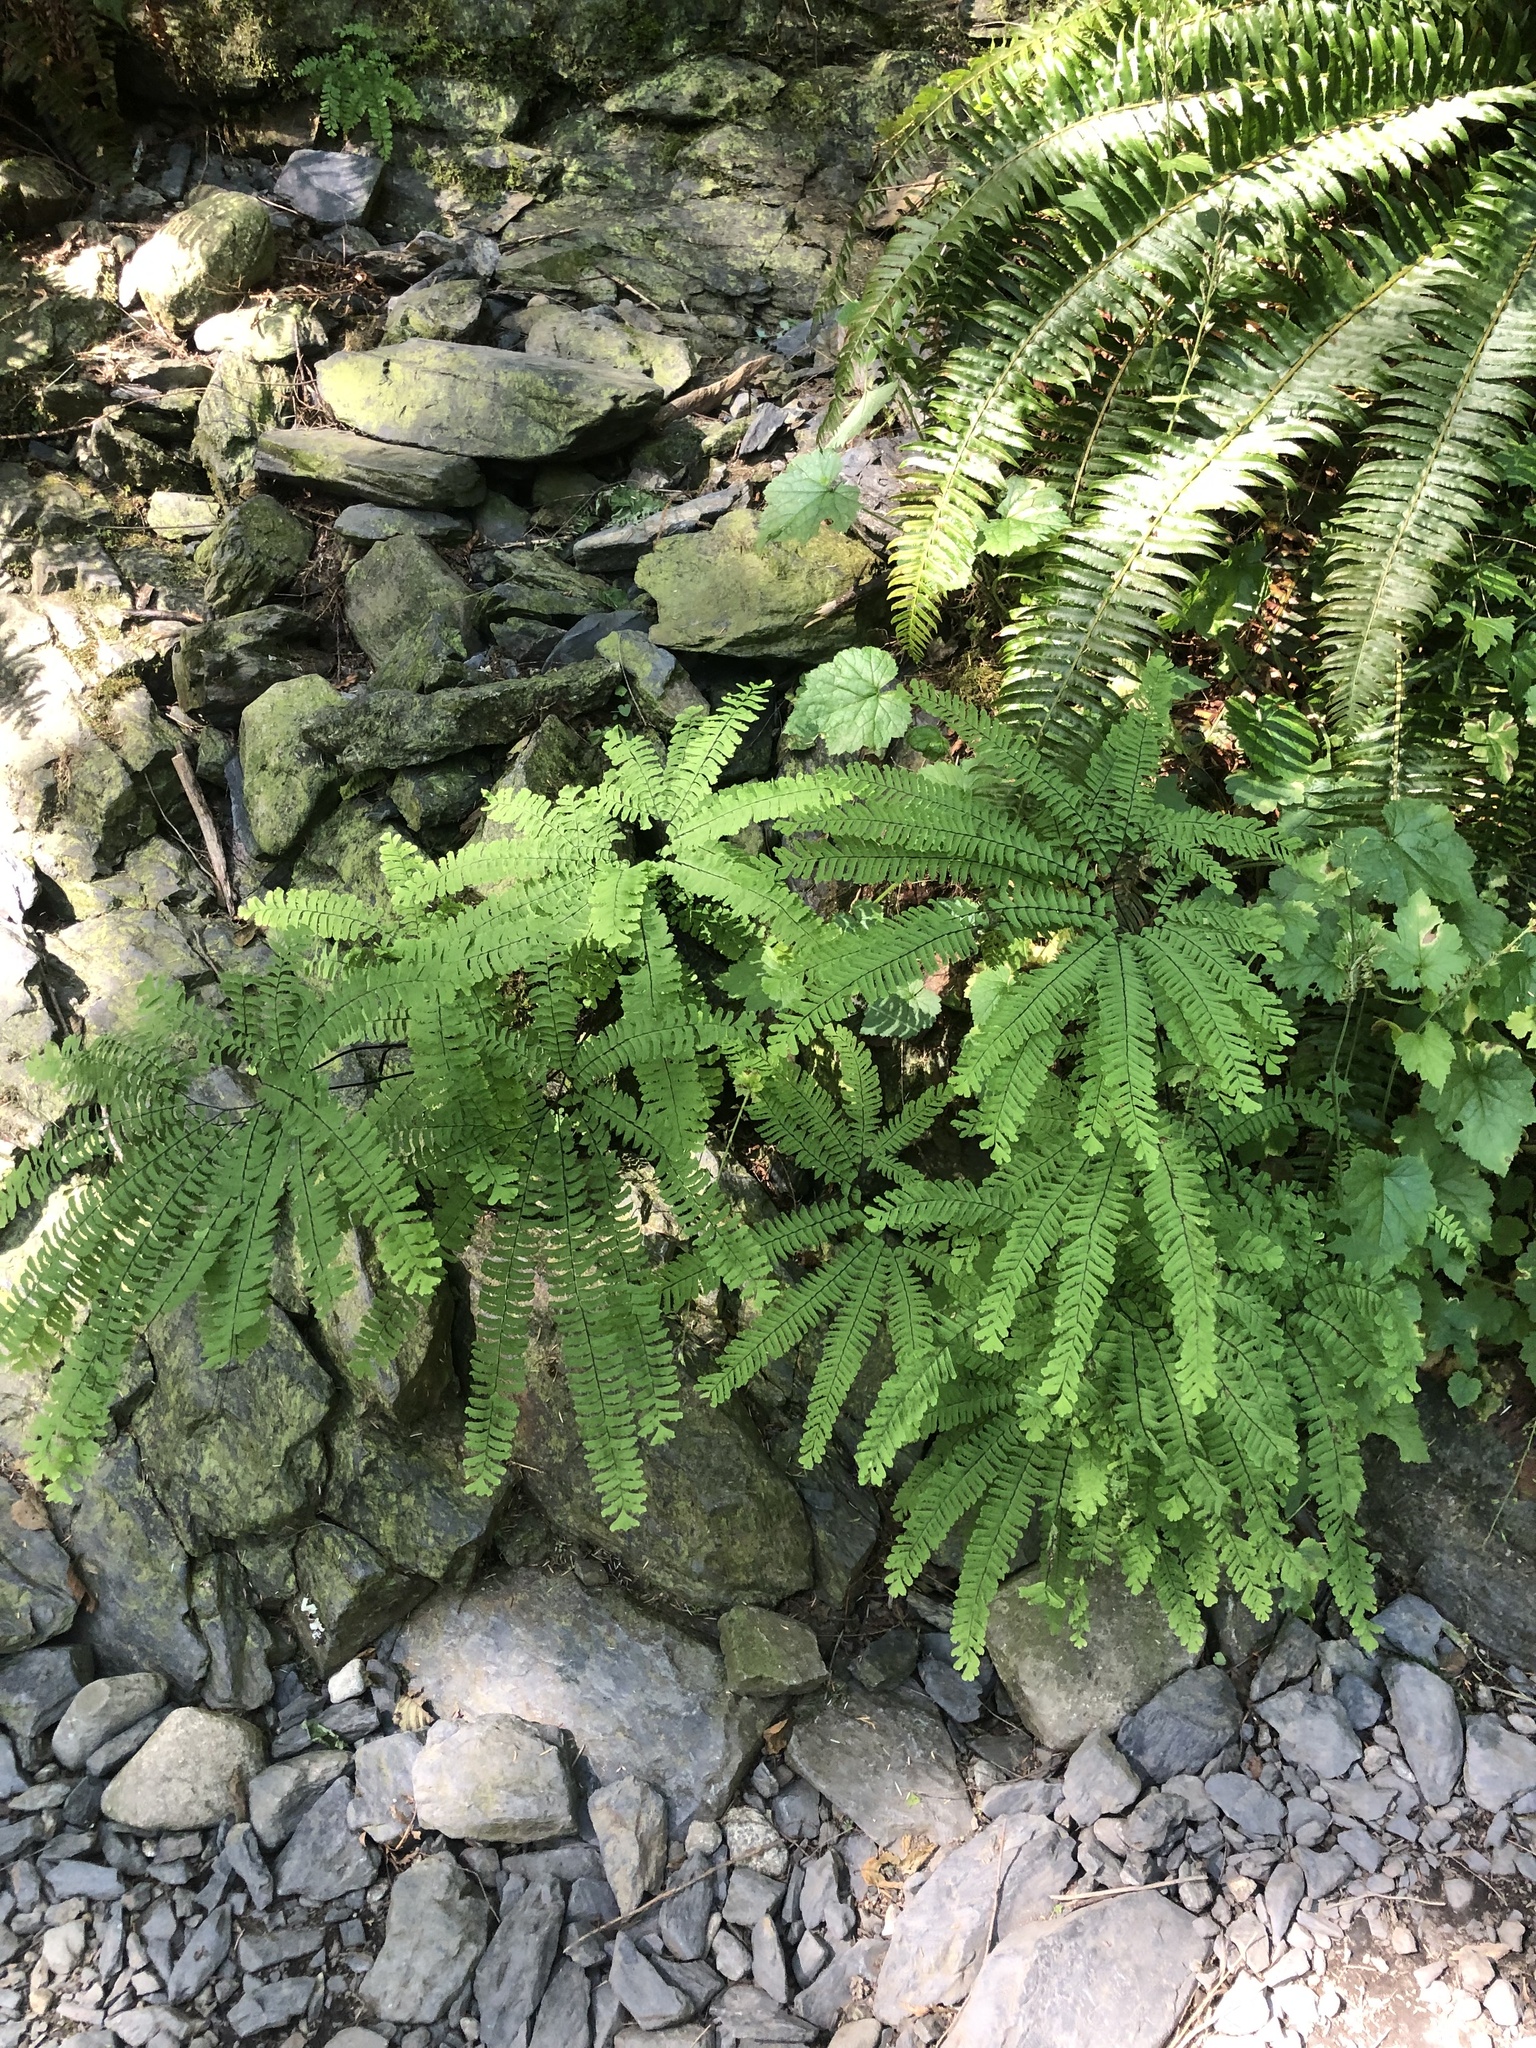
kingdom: Plantae
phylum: Tracheophyta
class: Polypodiopsida
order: Polypodiales
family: Pteridaceae
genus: Adiantum
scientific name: Adiantum aleuticum
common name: Aleutian maidenhair fern
